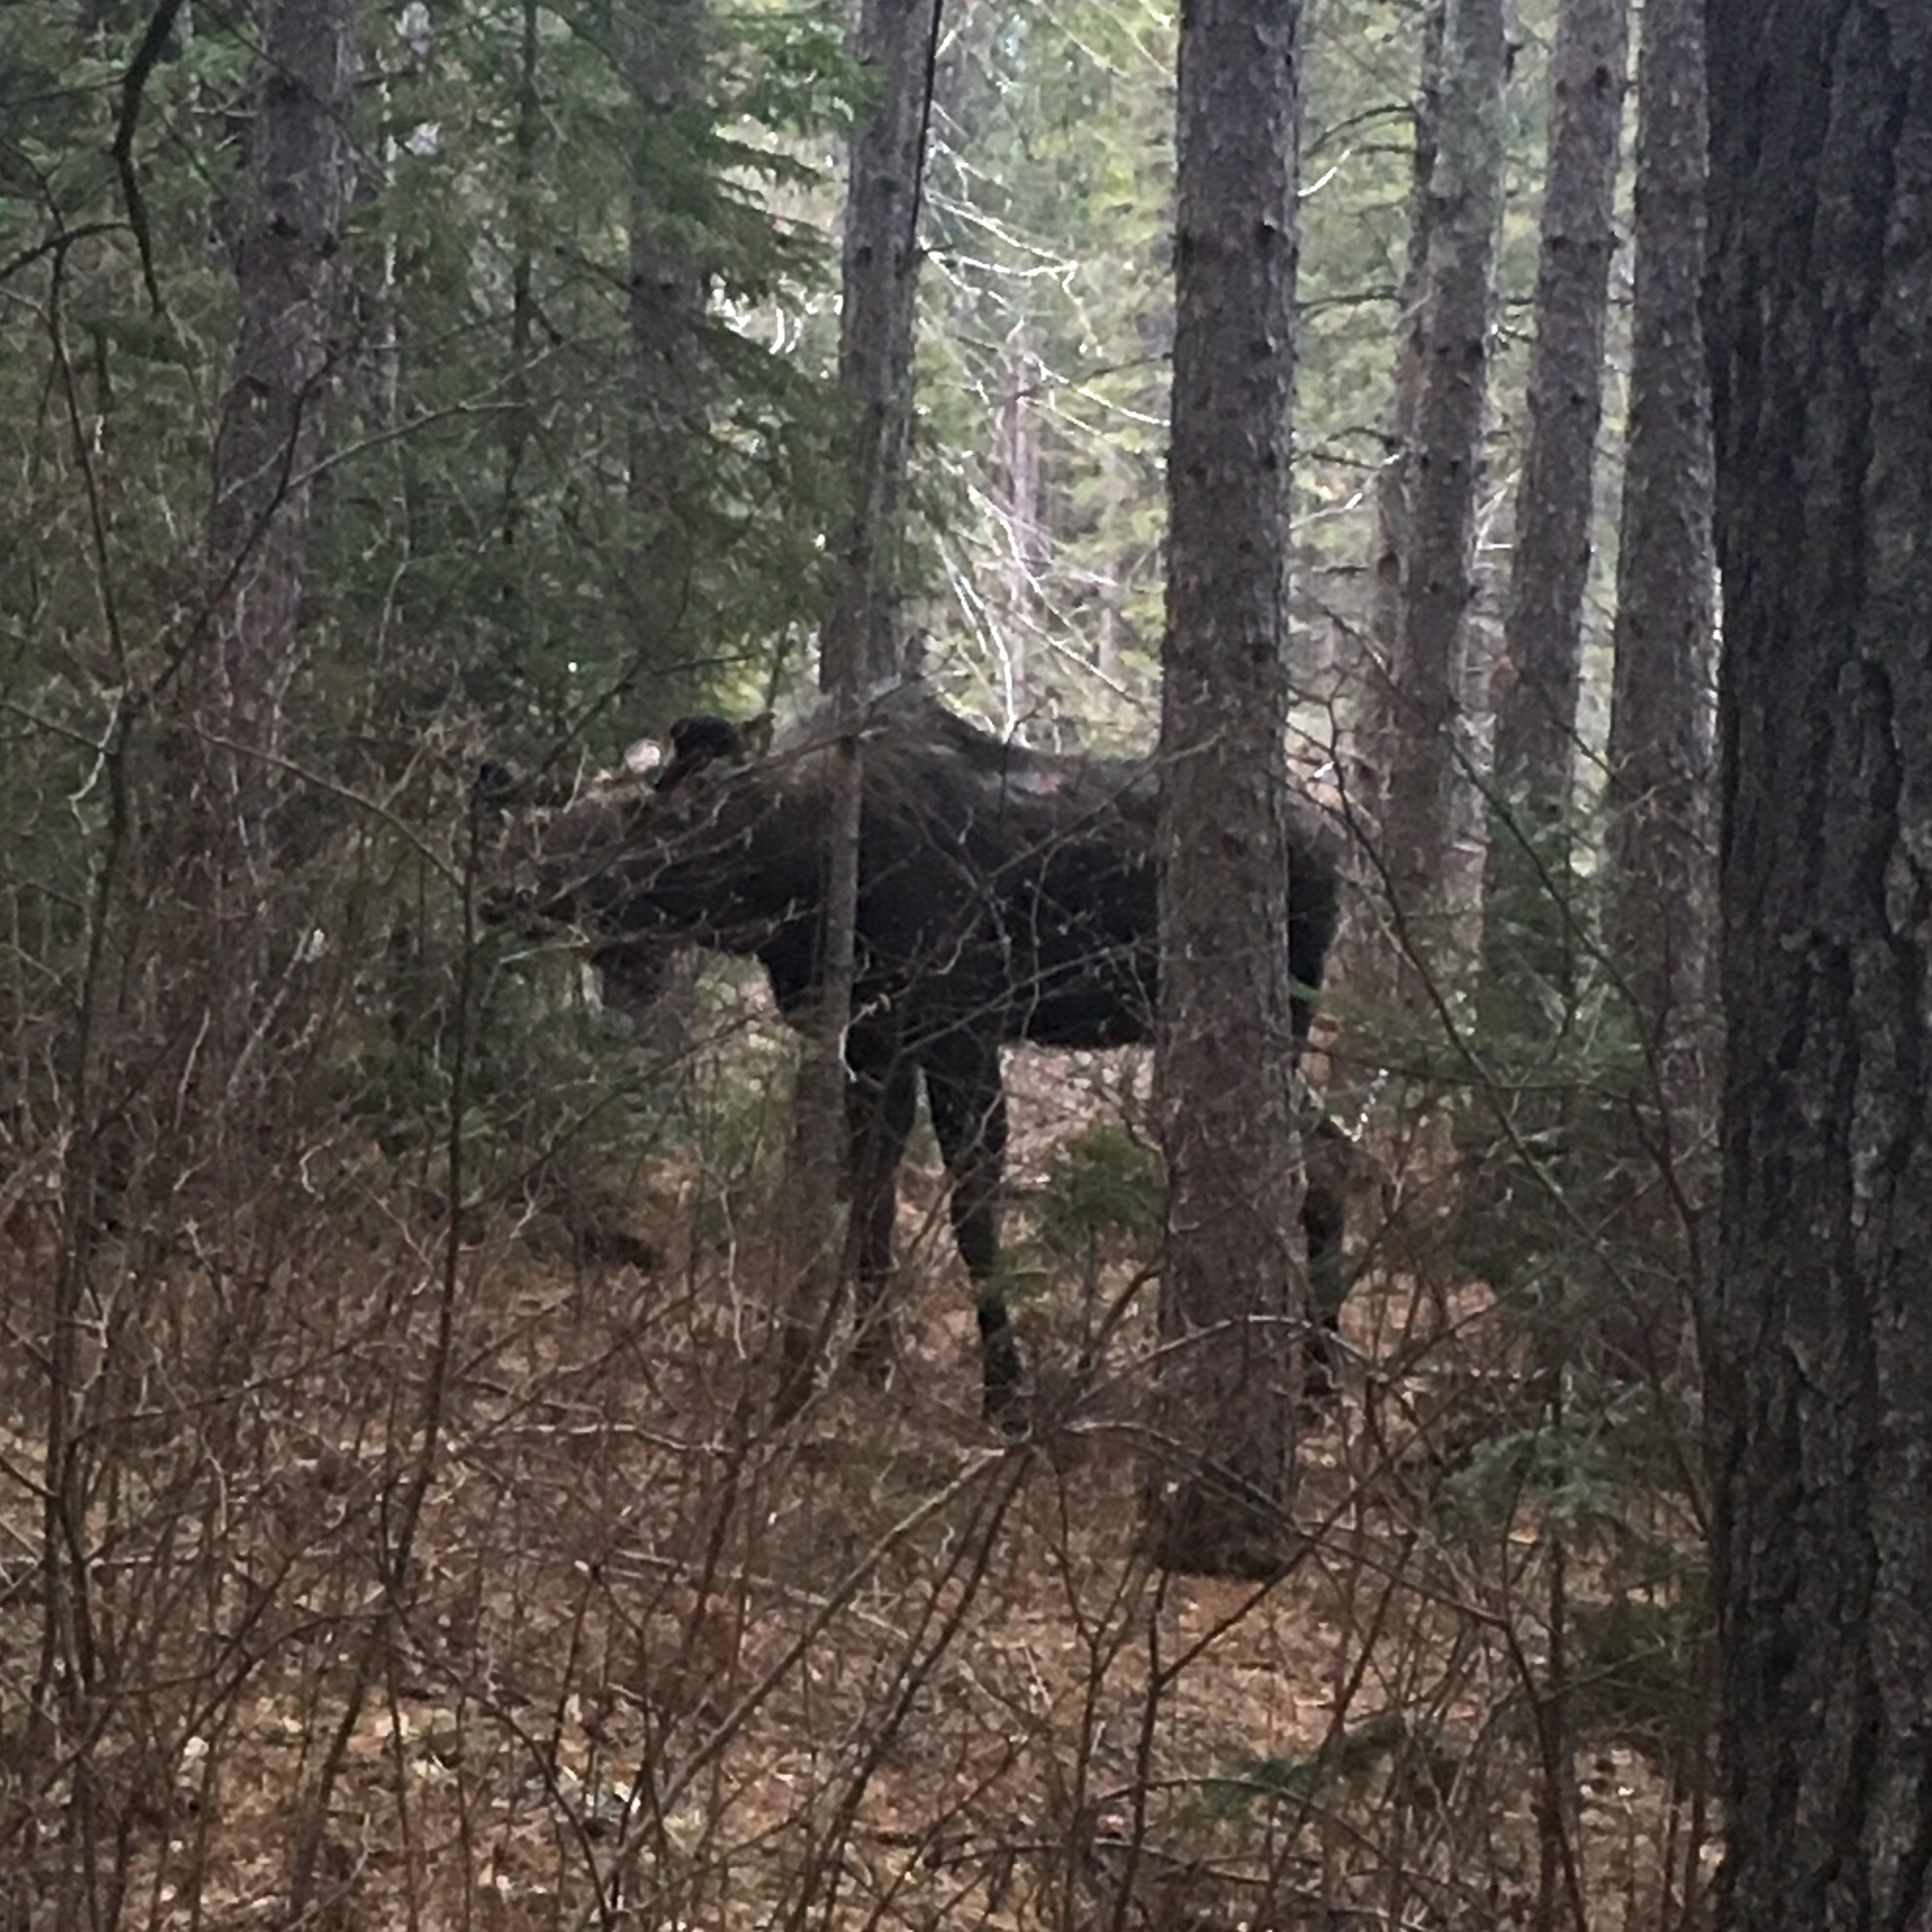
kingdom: Animalia
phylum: Chordata
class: Mammalia
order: Artiodactyla
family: Cervidae
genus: Alces
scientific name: Alces alces
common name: Moose
